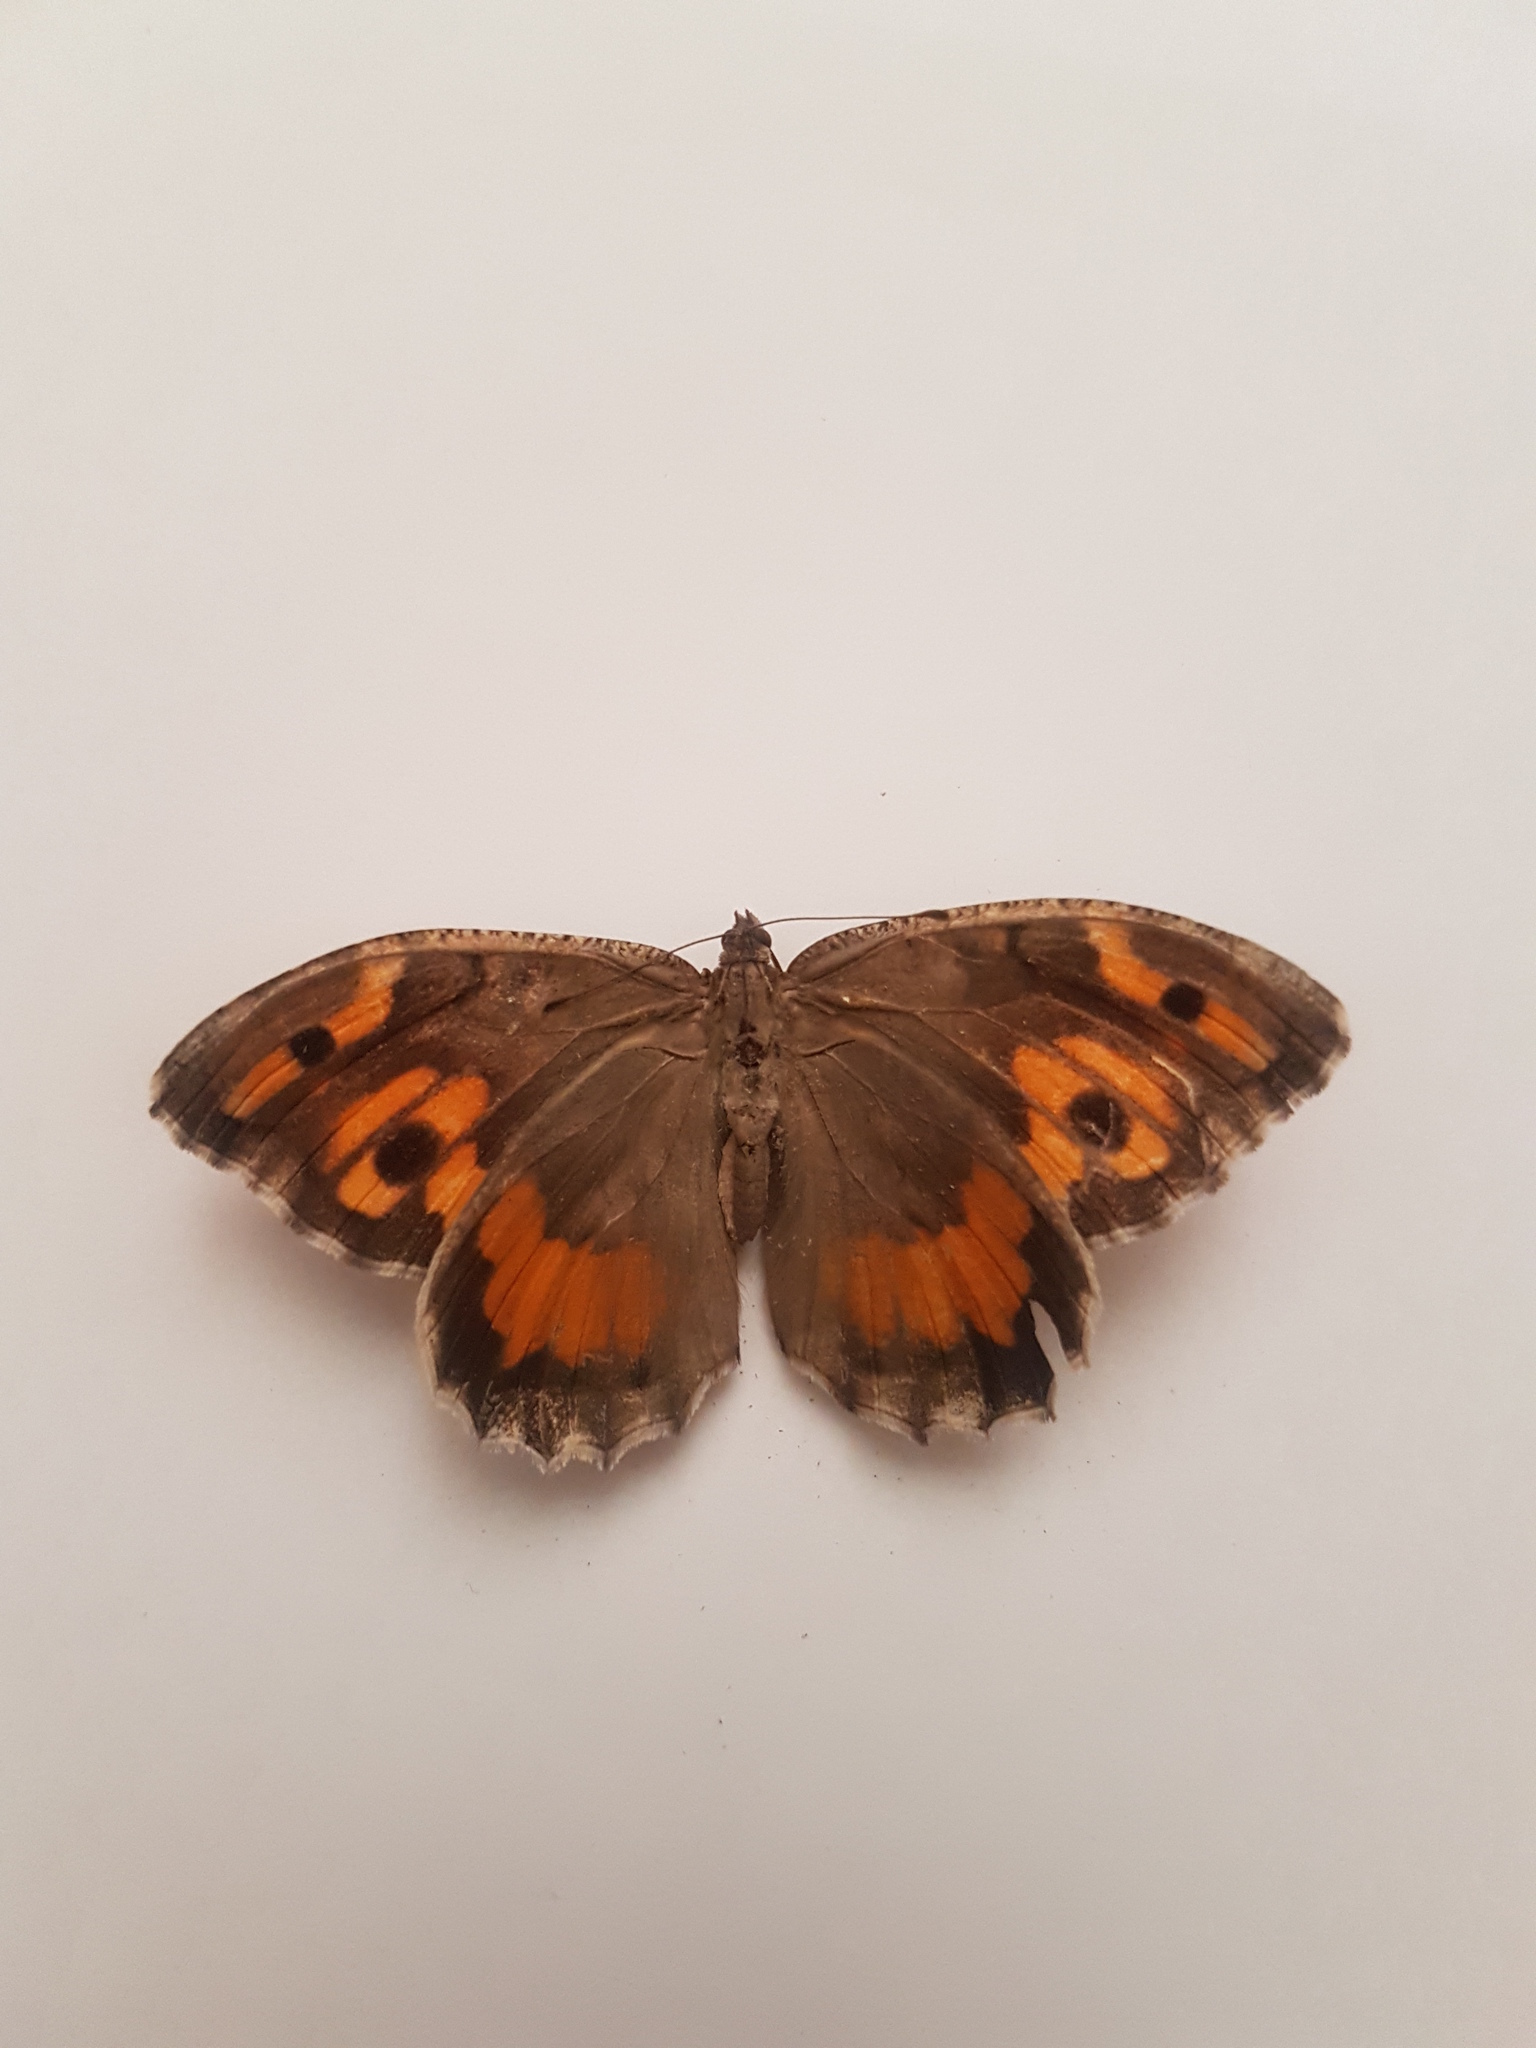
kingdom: Animalia
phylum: Arthropoda
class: Insecta
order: Lepidoptera
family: Nymphalidae
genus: Satyrus
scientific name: Satyrus Chazara persephone
